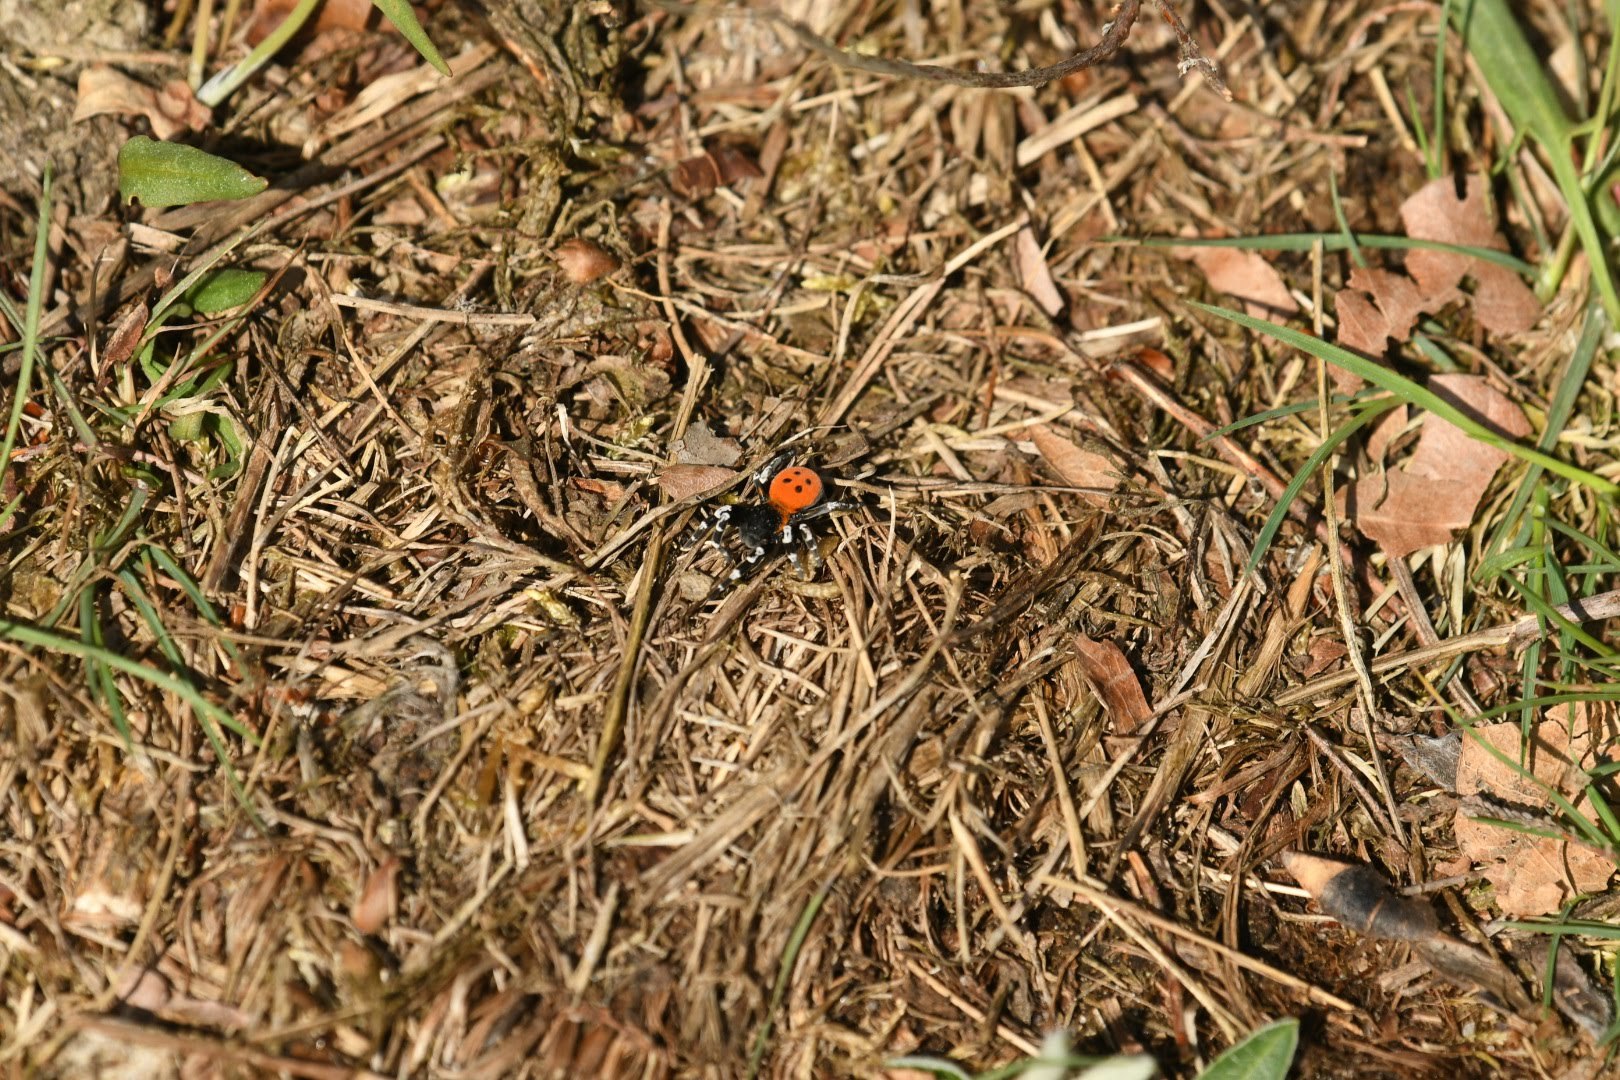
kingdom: Animalia
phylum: Arthropoda
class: Arachnida
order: Araneae
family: Eresidae
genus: Eresus
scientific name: Eresus sandaliatus
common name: Ladybird spider
